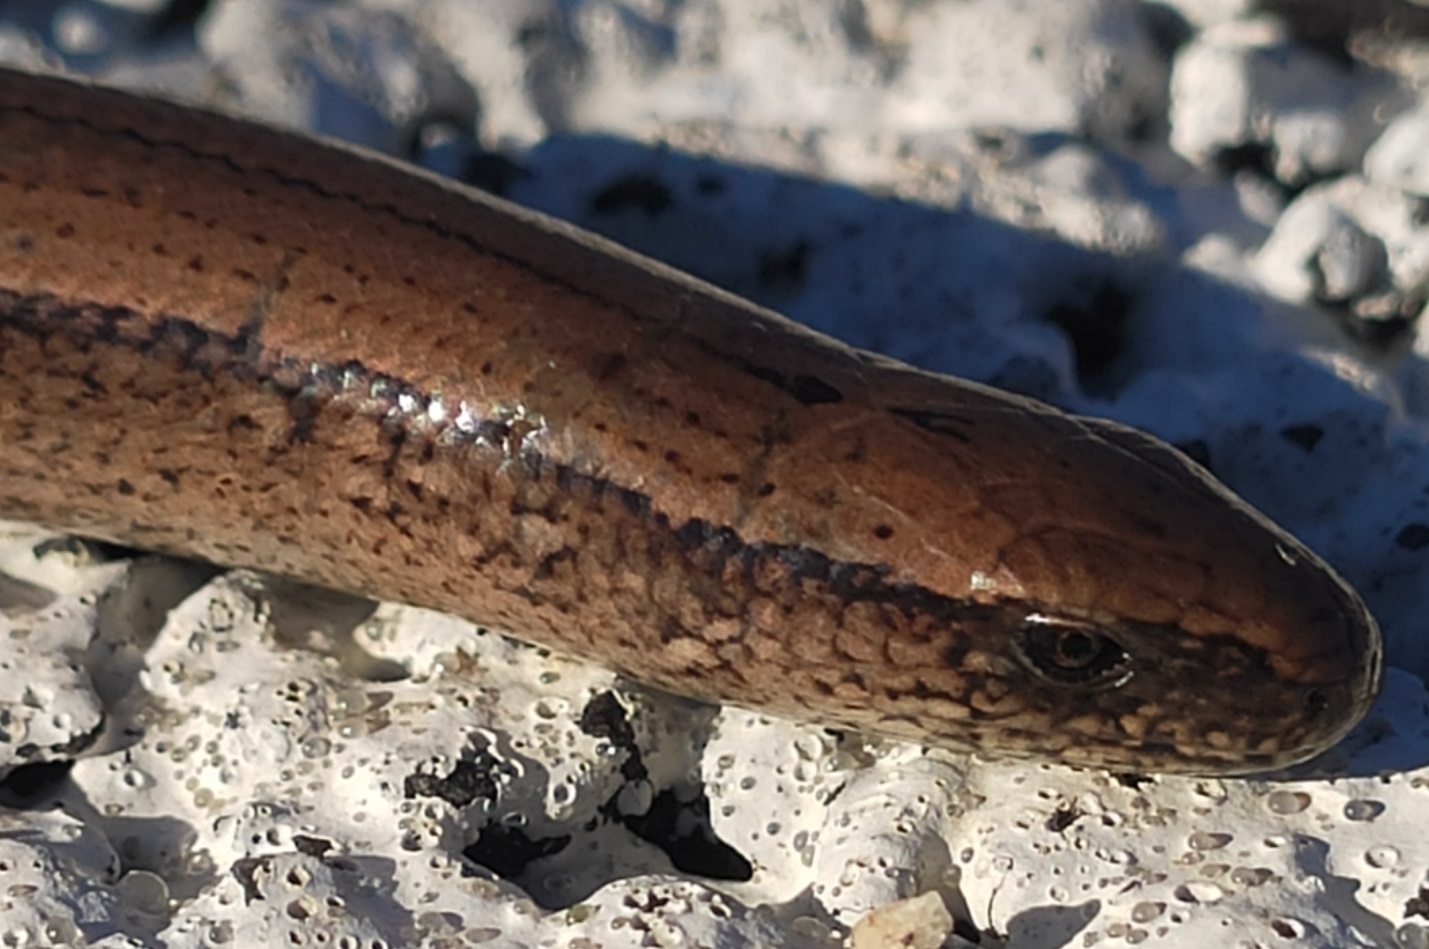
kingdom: Animalia
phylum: Chordata
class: Squamata
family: Anguidae
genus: Anguis
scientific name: Anguis fragilis
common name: Slow worm
